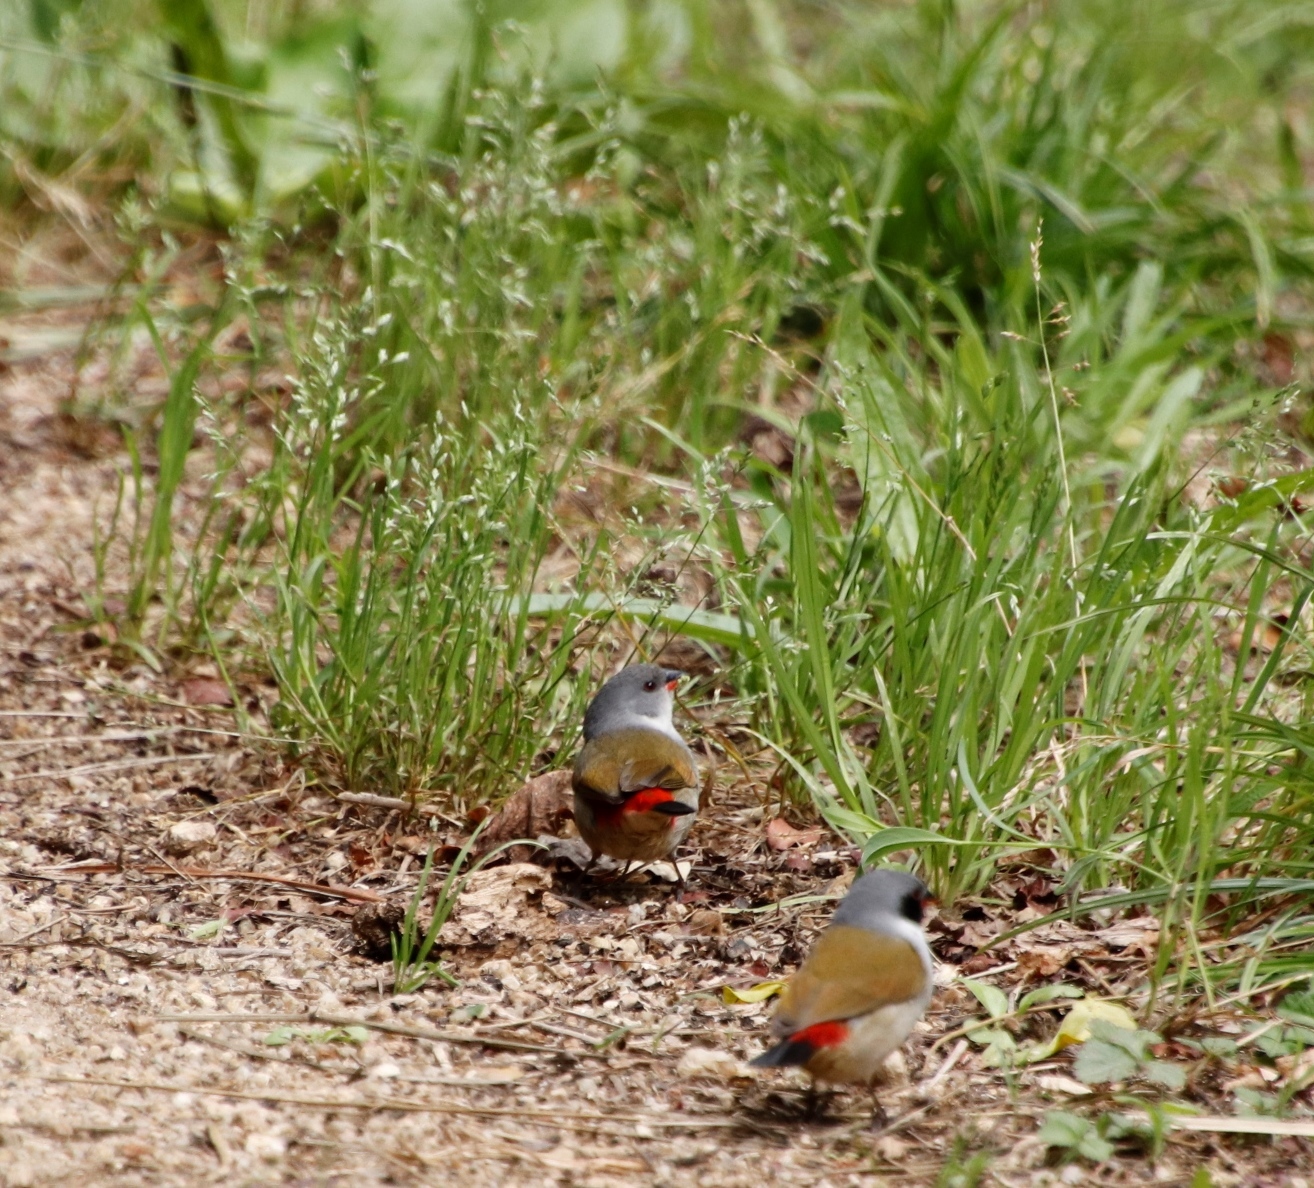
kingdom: Animalia
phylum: Chordata
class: Aves
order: Passeriformes
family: Estrildidae
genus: Coccopygia
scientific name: Coccopygia melanotis
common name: Swee waxbill
